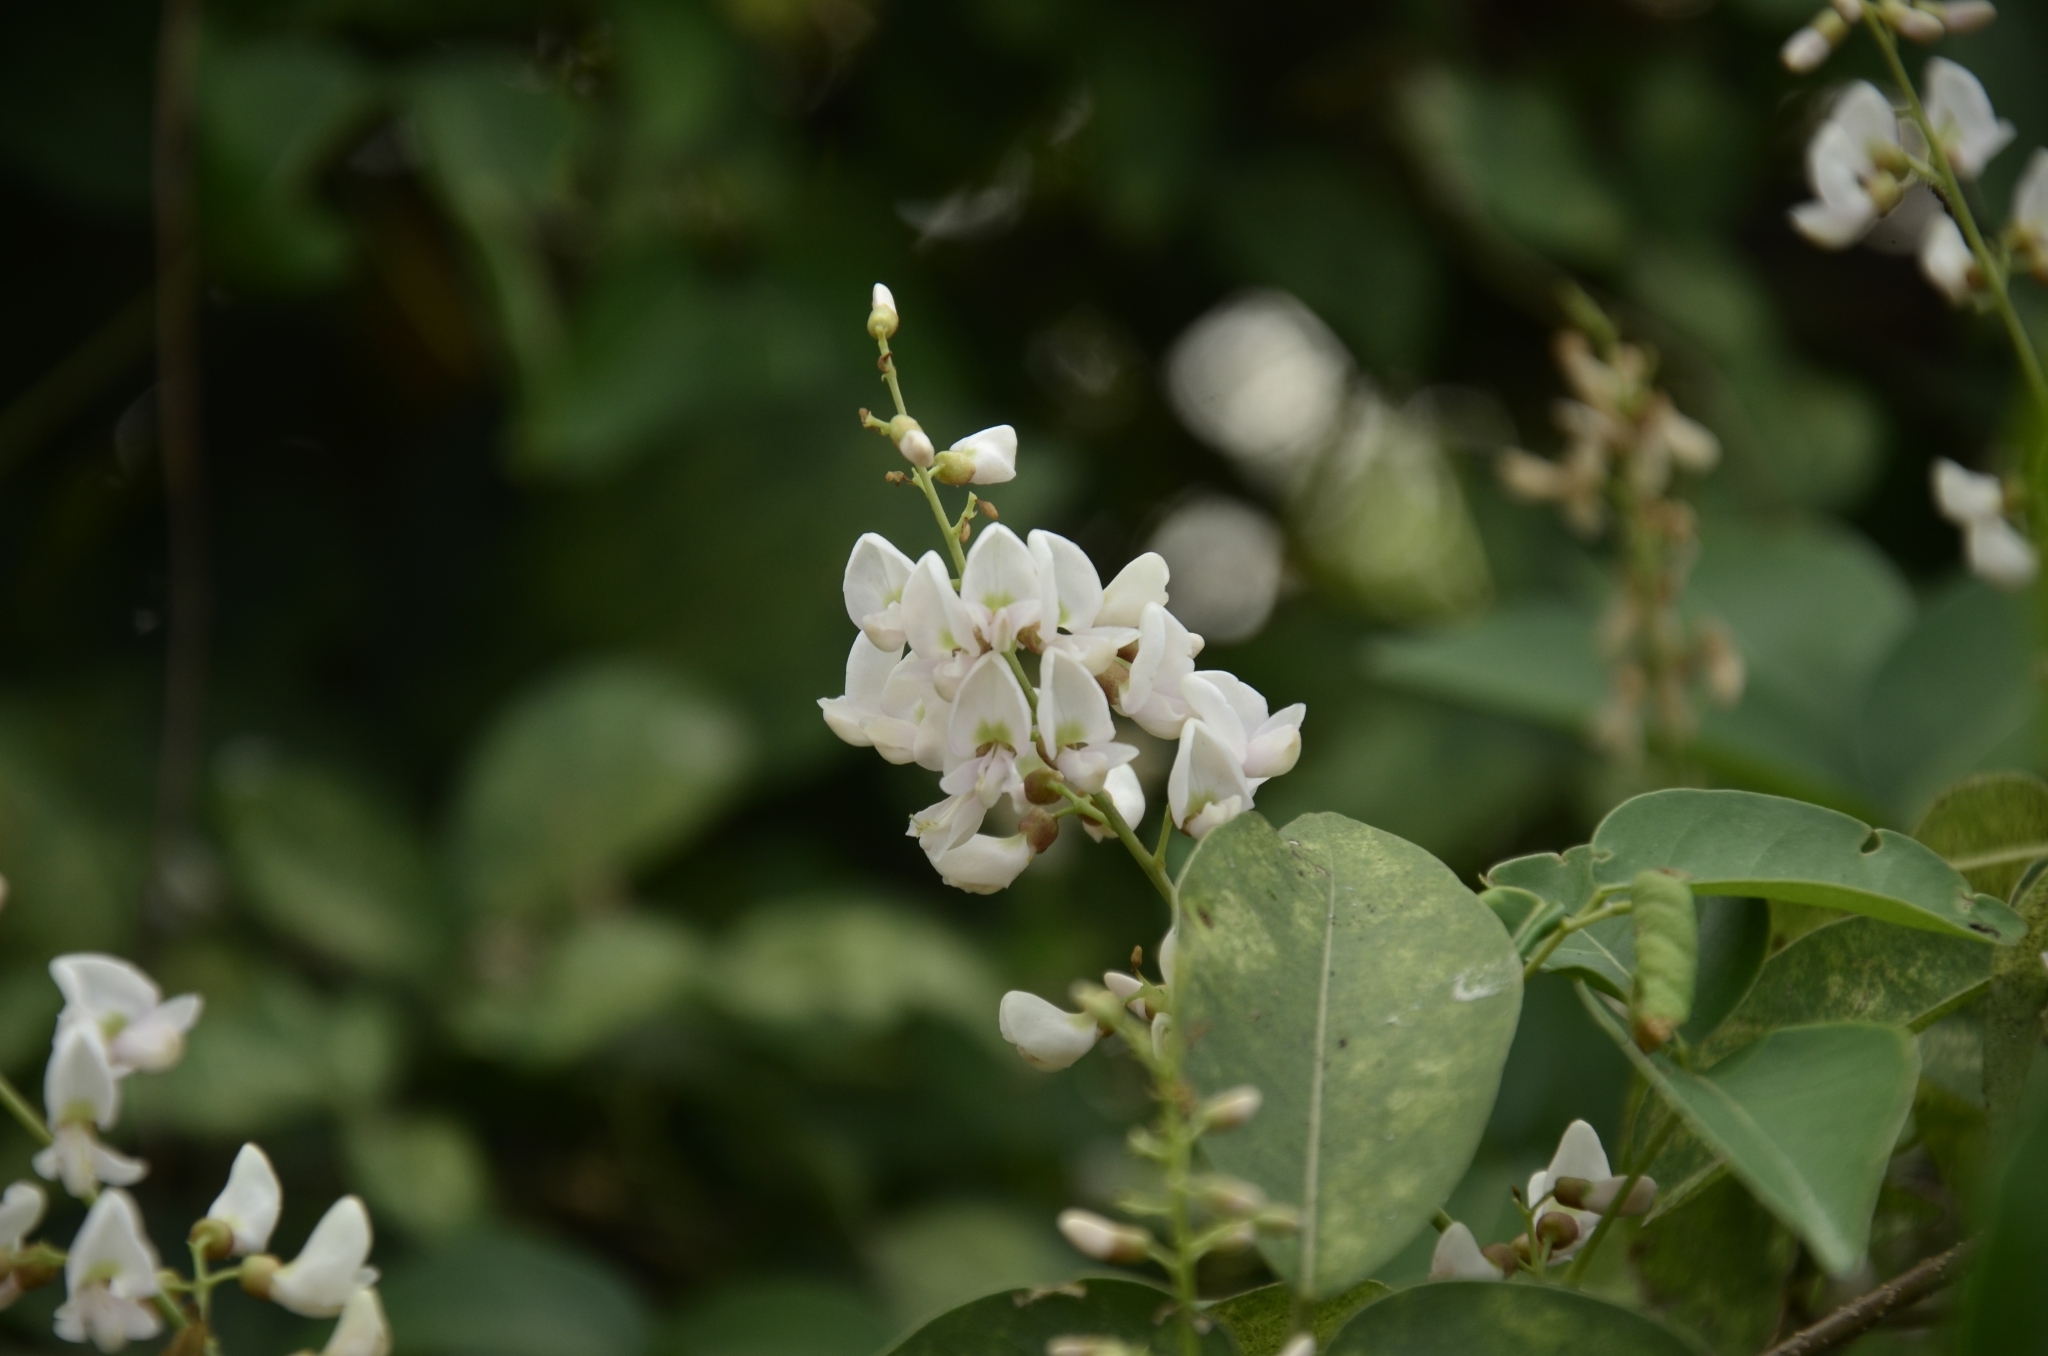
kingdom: Plantae
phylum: Tracheophyta
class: Magnoliopsida
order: Fabales
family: Fabaceae
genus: Derris
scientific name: Derris trifoliata
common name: Three-leaf derris
